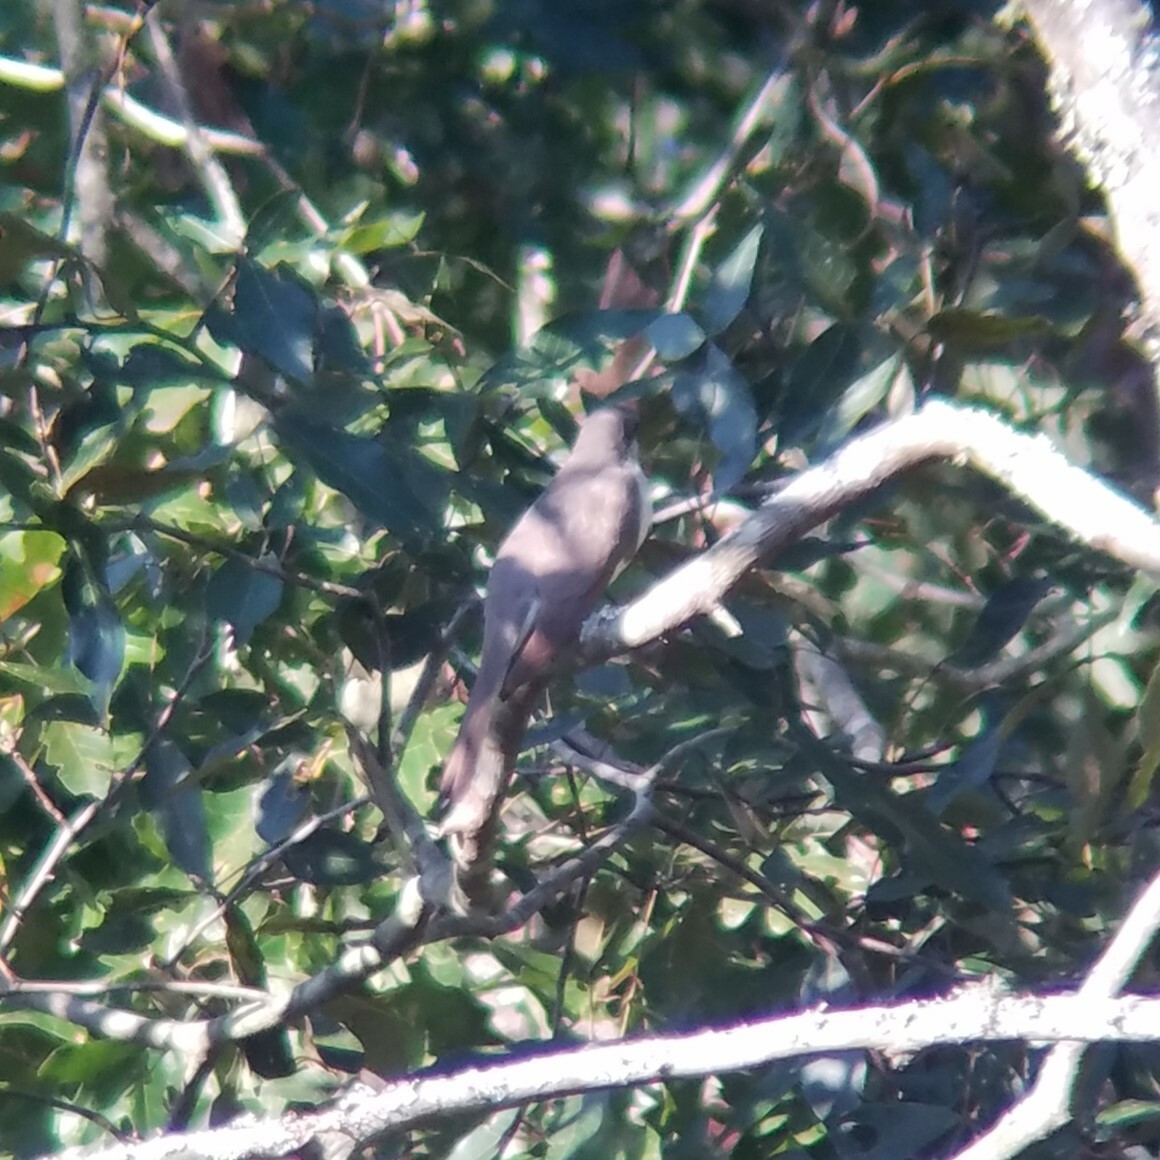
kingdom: Animalia
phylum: Chordata
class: Aves
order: Cuculiformes
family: Cuculidae
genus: Coccyzus
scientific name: Coccyzus americanus
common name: Yellow-billed cuckoo
